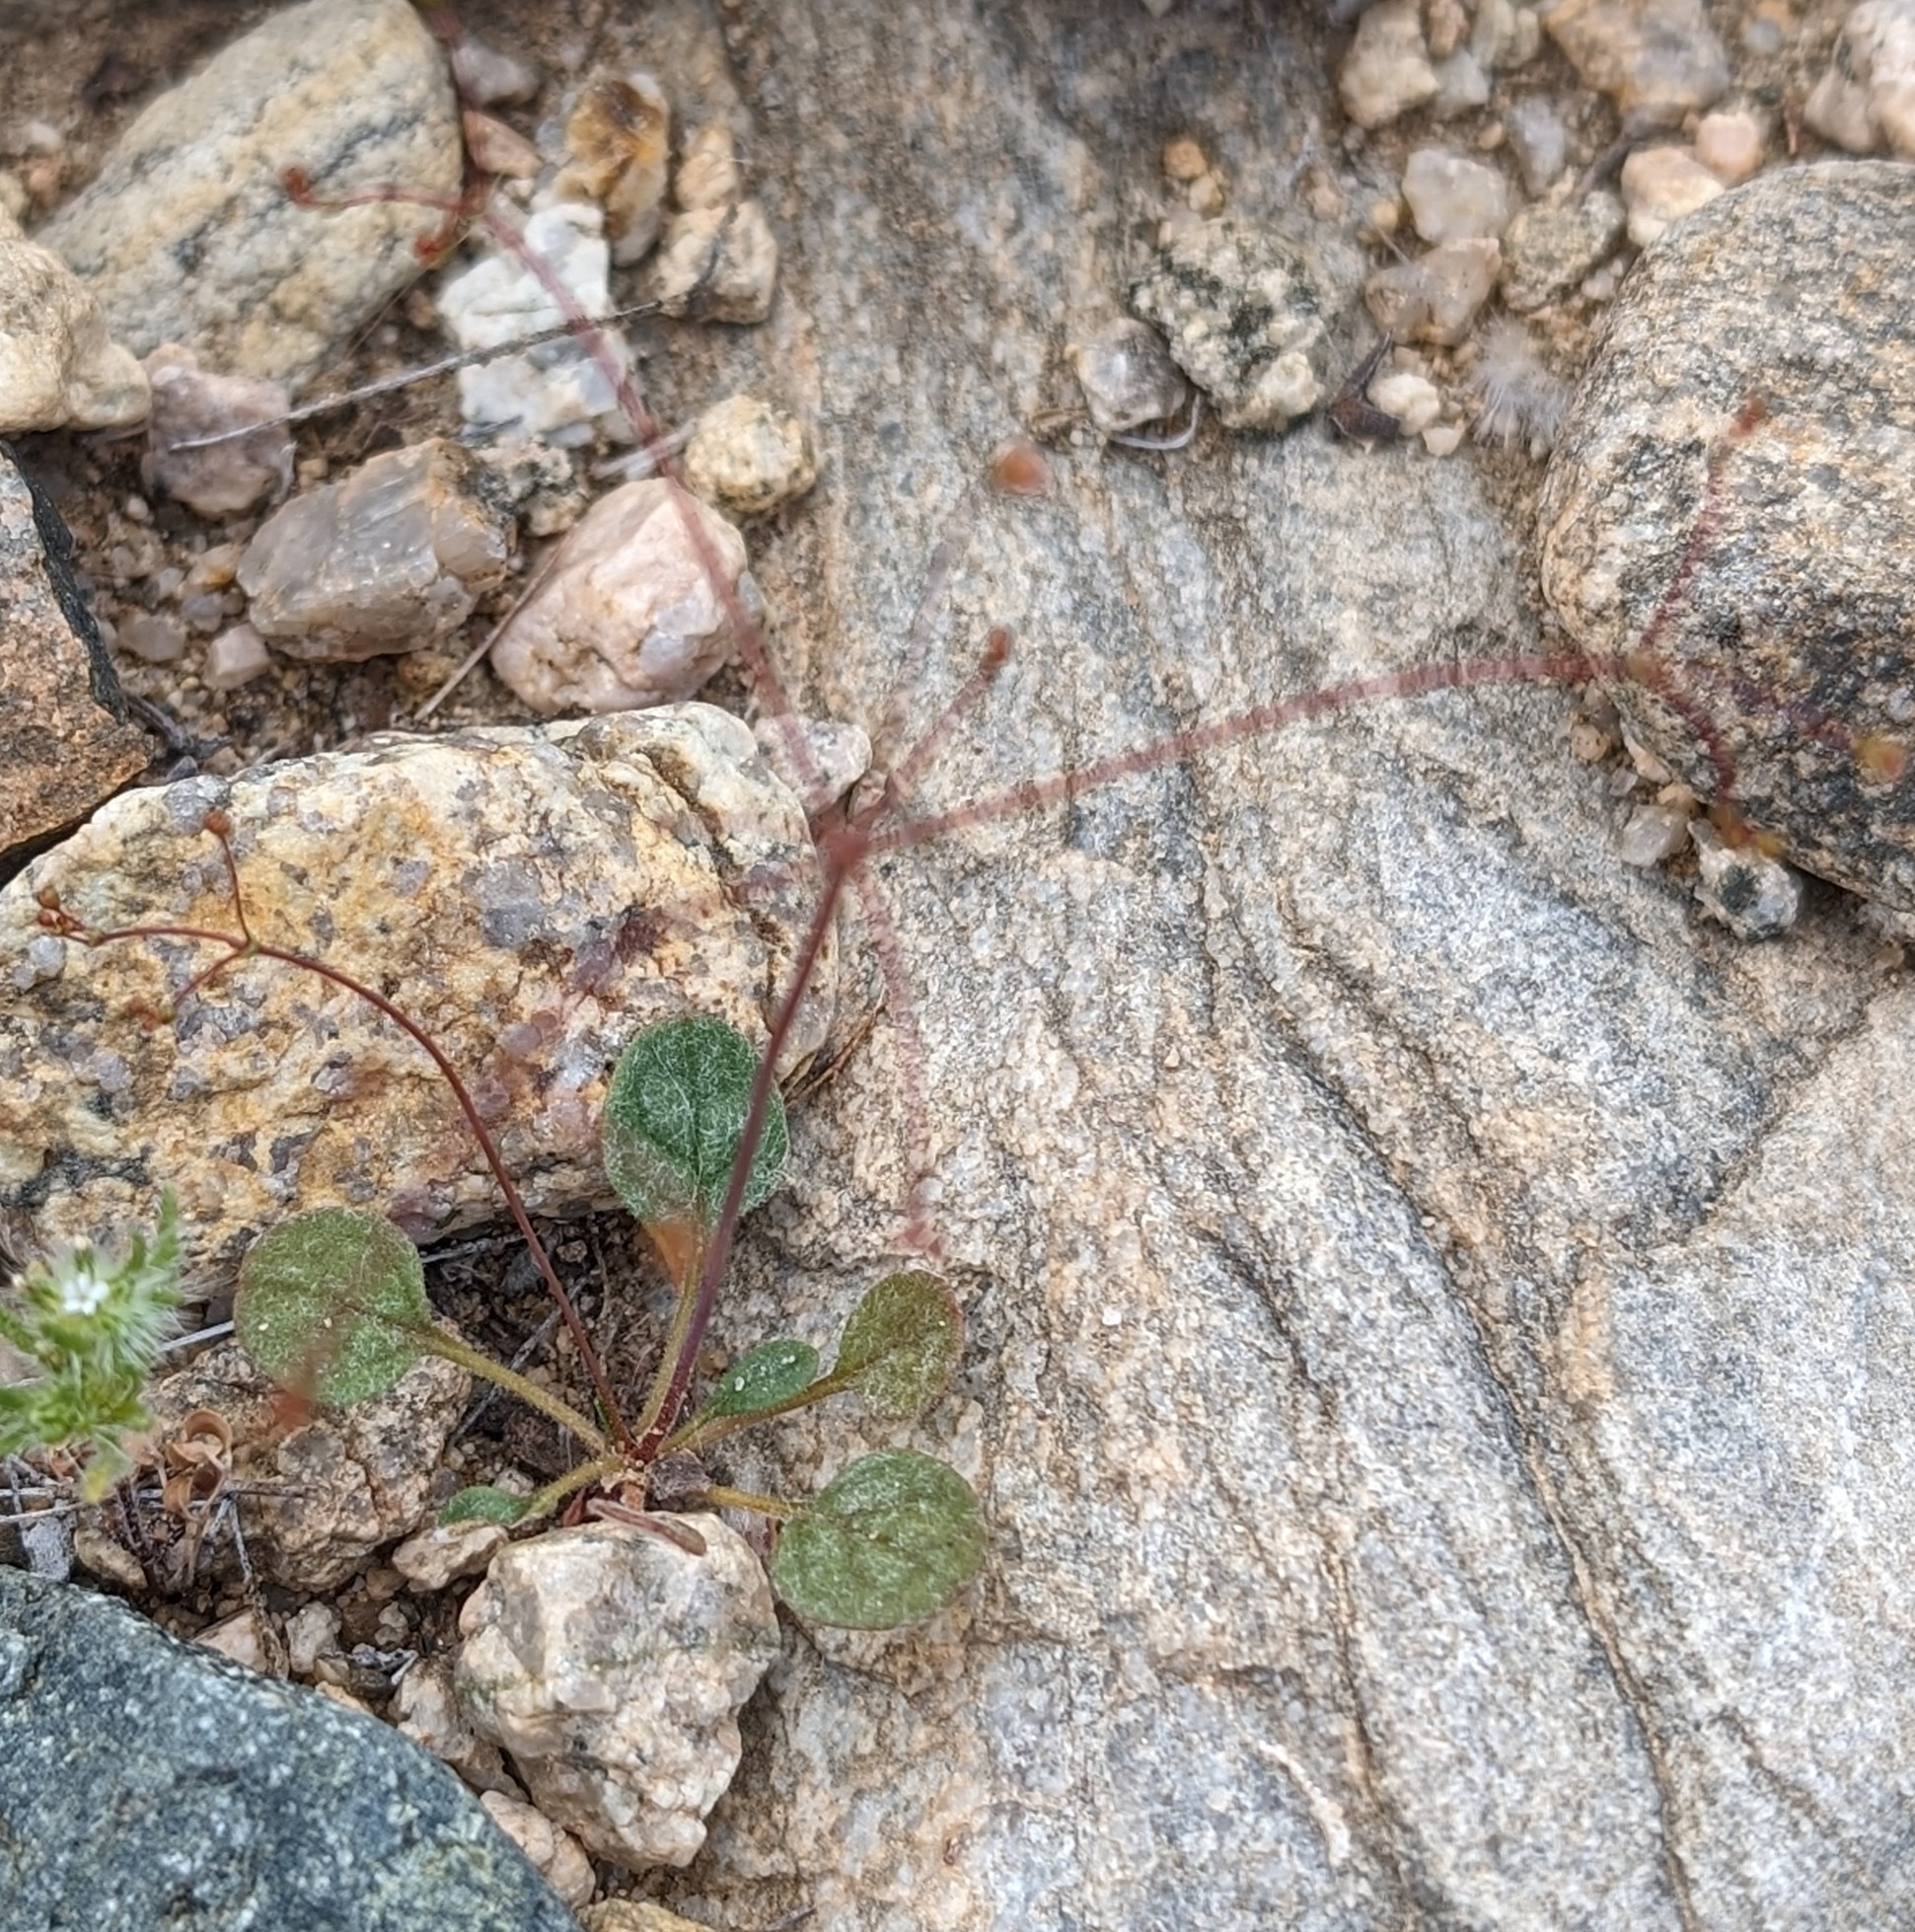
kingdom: Plantae
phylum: Tracheophyta
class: Magnoliopsida
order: Caryophyllales
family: Polygonaceae
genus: Eriogonum
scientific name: Eriogonum thomasii
